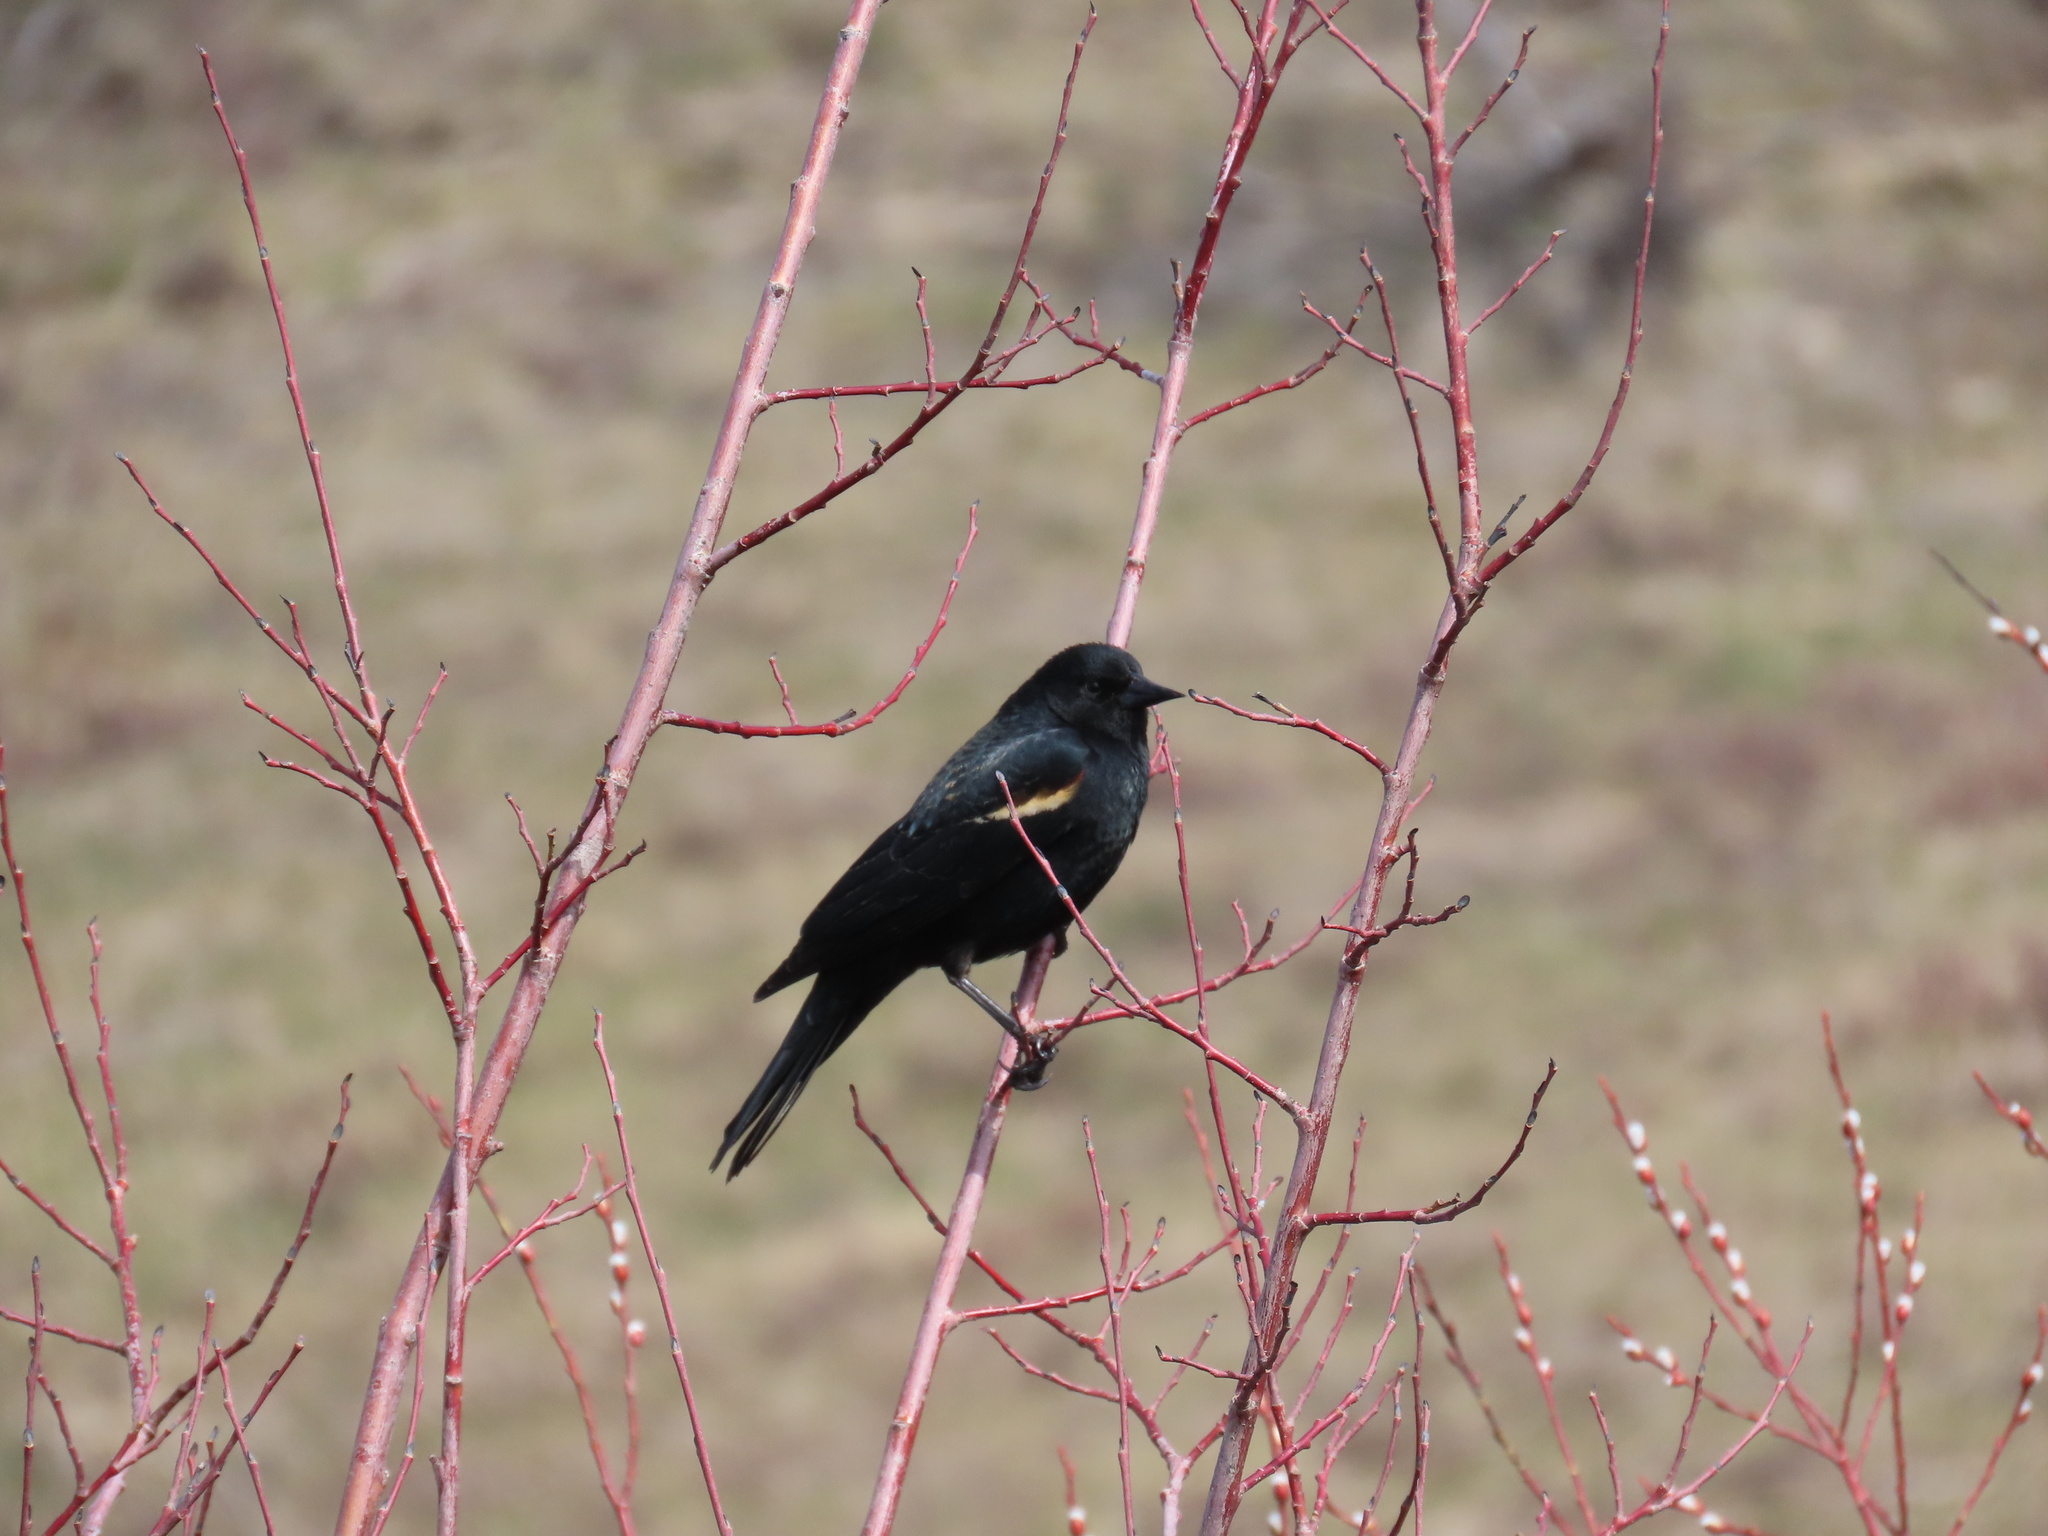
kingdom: Animalia
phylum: Chordata
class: Aves
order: Passeriformes
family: Icteridae
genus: Agelaius
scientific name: Agelaius phoeniceus
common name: Red-winged blackbird
